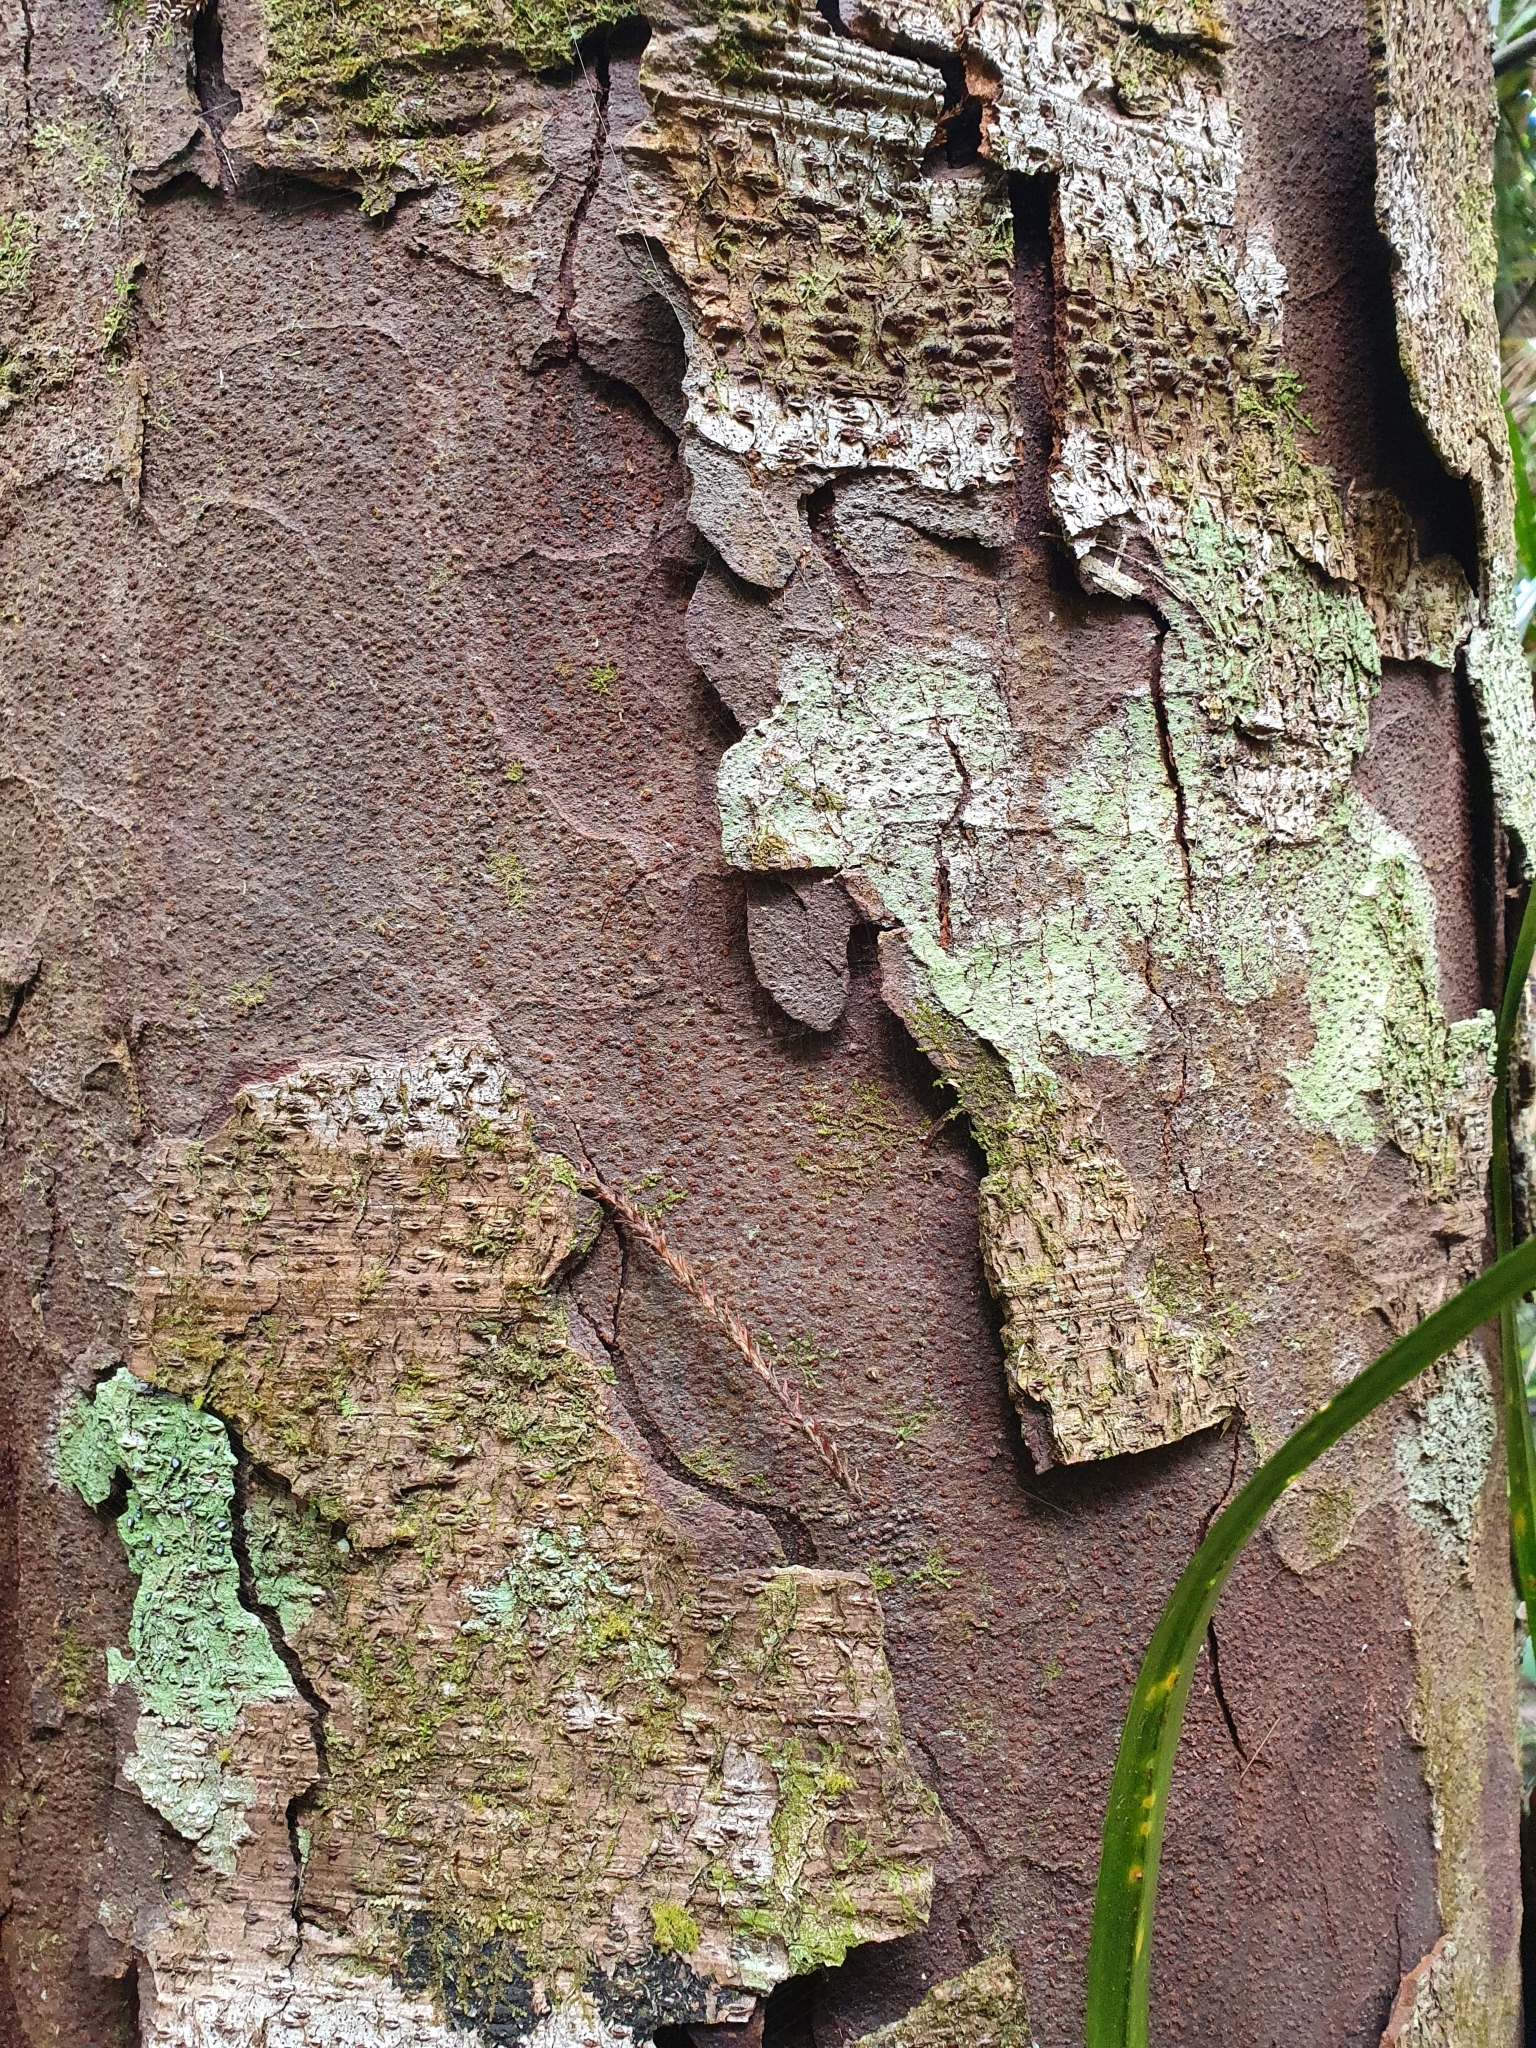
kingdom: Plantae
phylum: Tracheophyta
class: Pinopsida
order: Pinales
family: Podocarpaceae
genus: Dacrydium
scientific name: Dacrydium cupressinum
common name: Red pine
